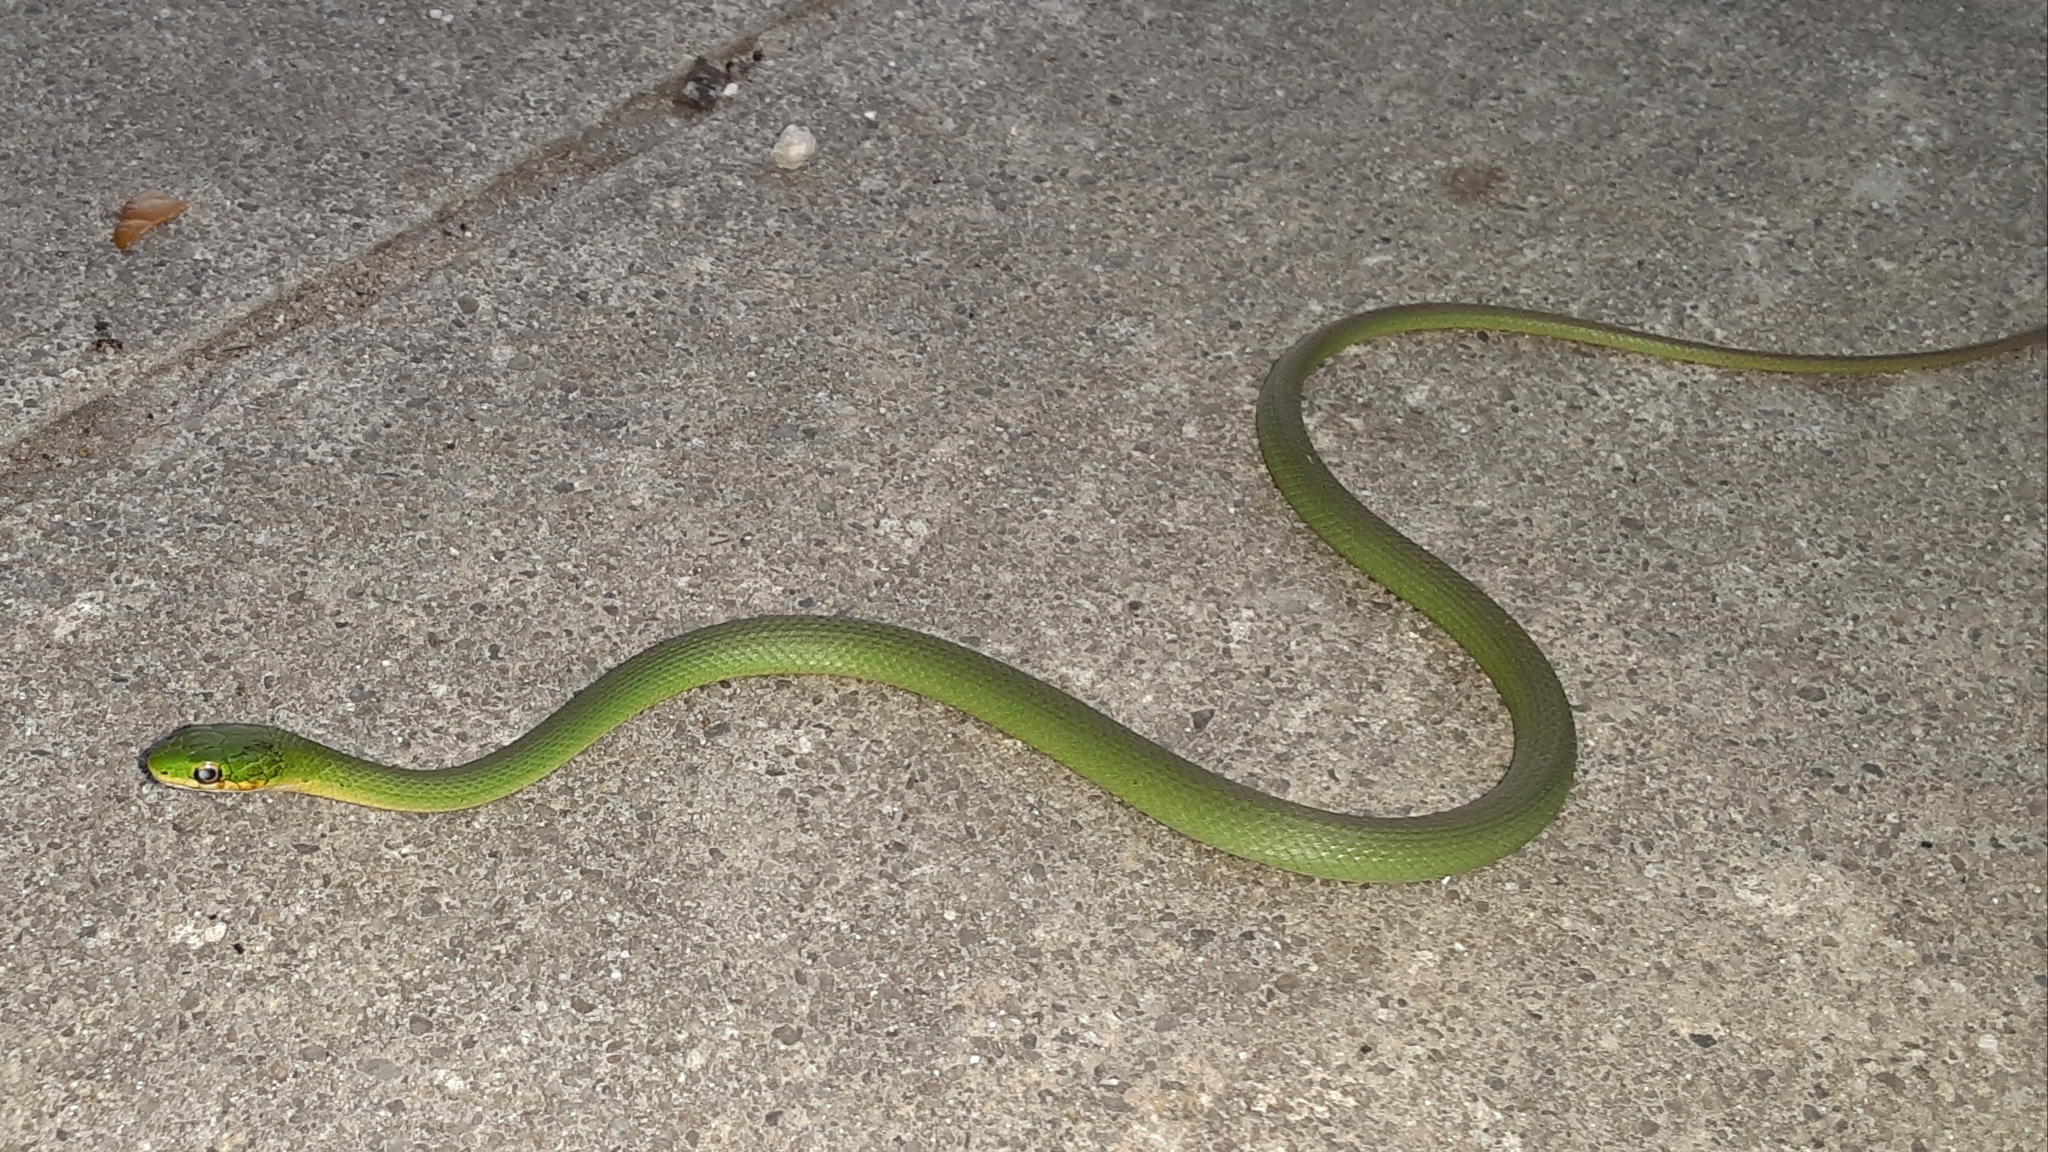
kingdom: Animalia
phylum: Chordata
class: Squamata
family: Colubridae
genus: Opheodrys
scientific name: Opheodrys aestivus
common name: Rough greensnake
